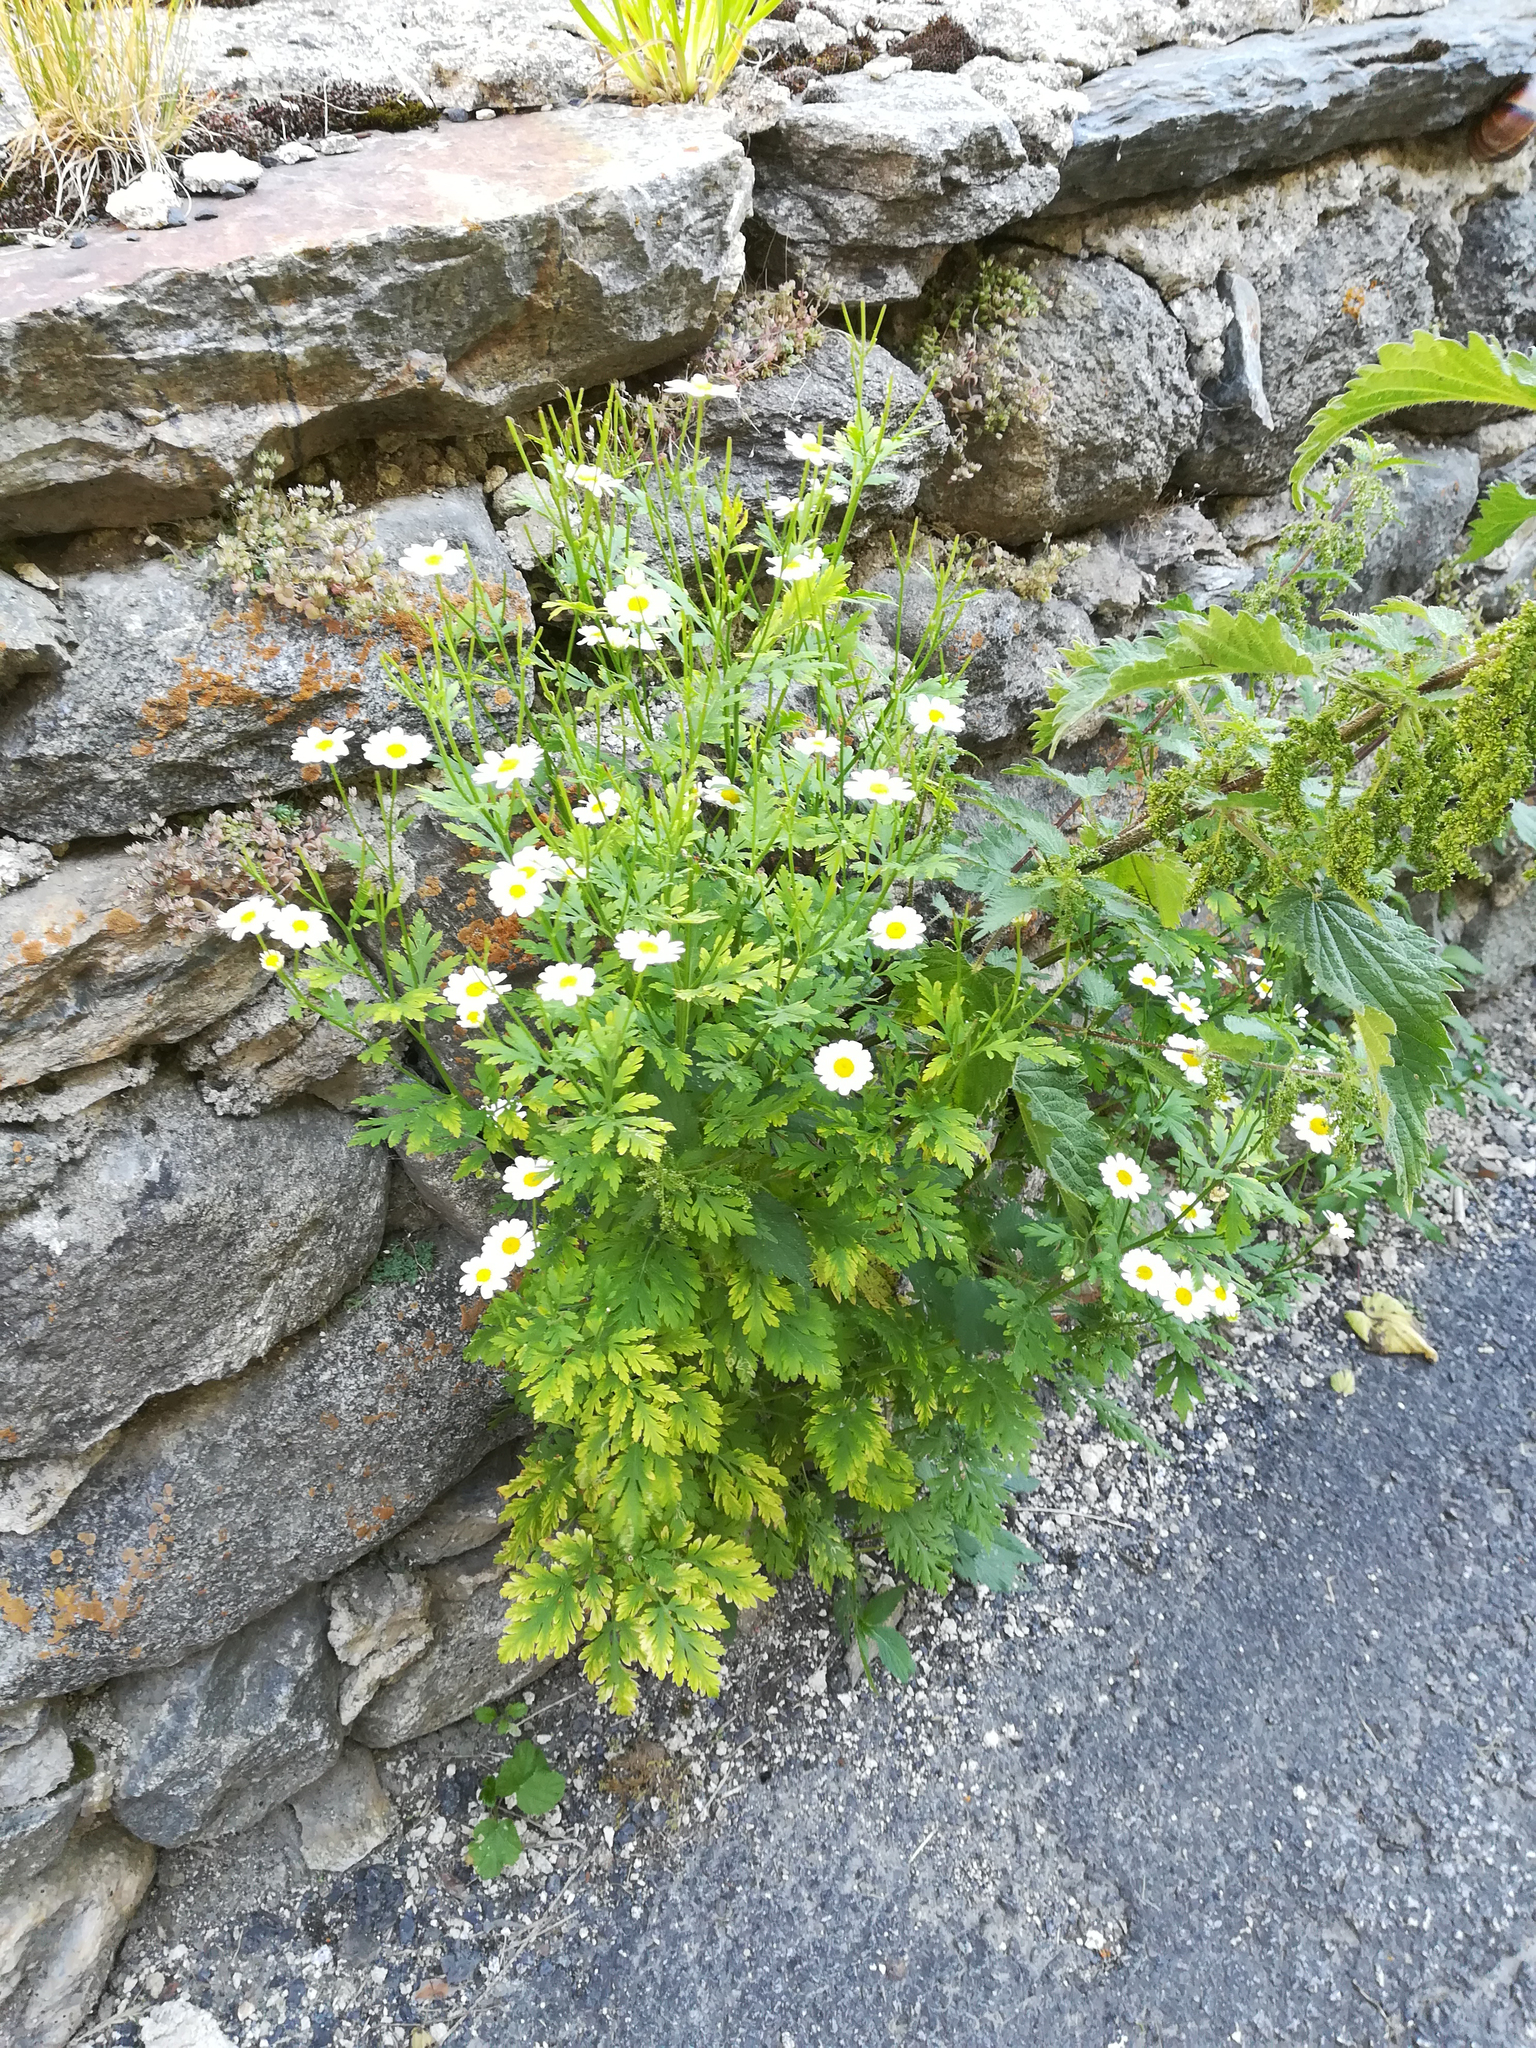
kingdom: Plantae
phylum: Tracheophyta
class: Magnoliopsida
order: Asterales
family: Asteraceae
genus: Tanacetum
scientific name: Tanacetum parthenium
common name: Feverfew
